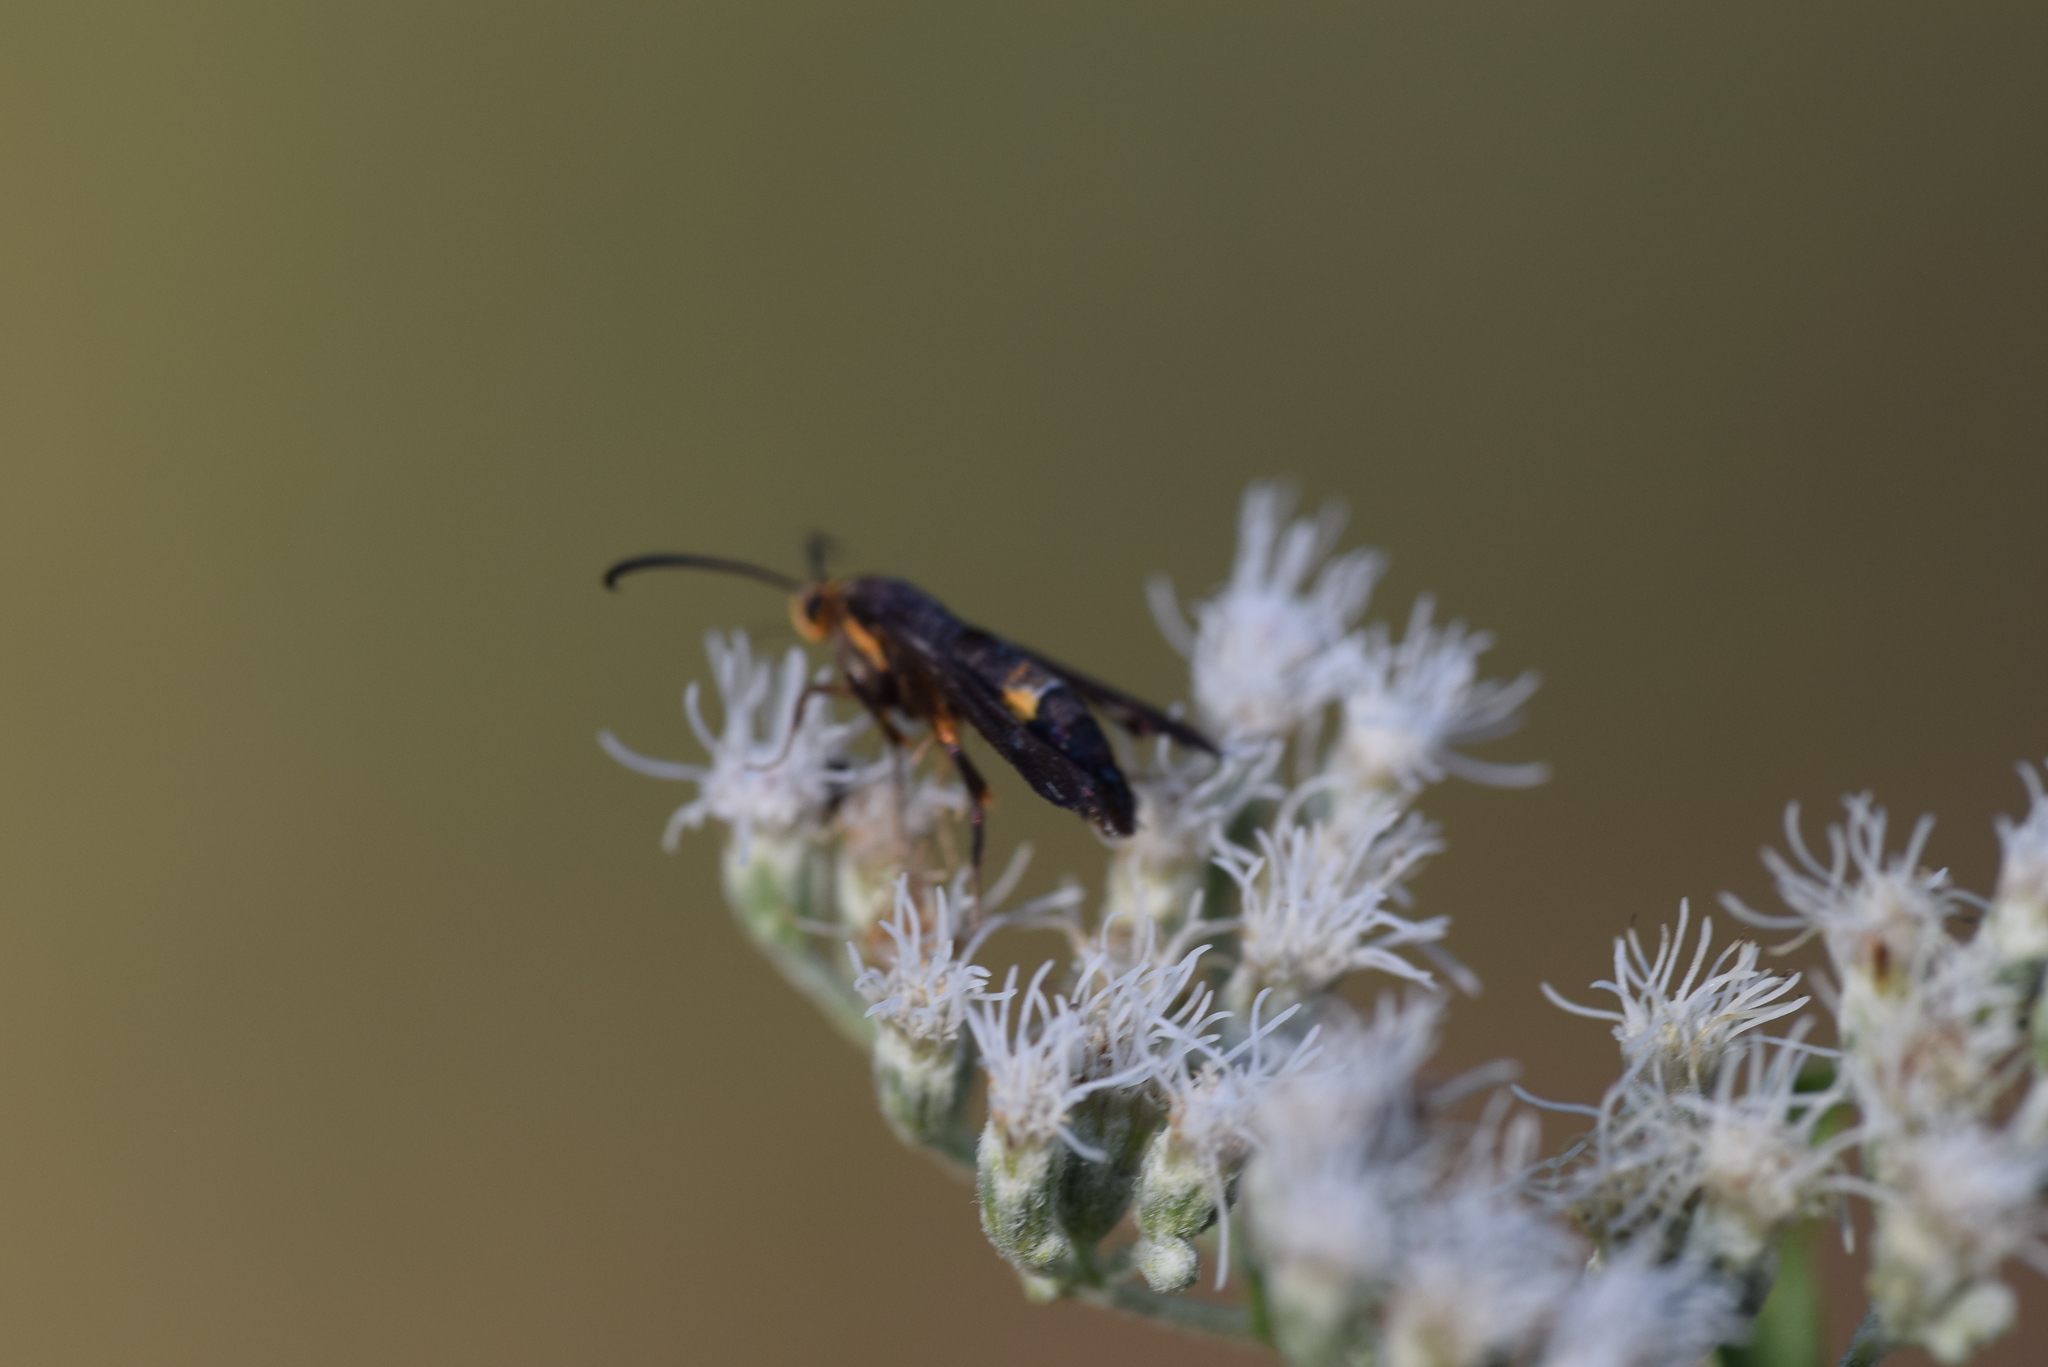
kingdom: Animalia
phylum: Arthropoda
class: Insecta
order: Lepidoptera
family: Sesiidae
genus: Carmenta
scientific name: Carmenta pyralidiformis
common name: Boneset borer moth
